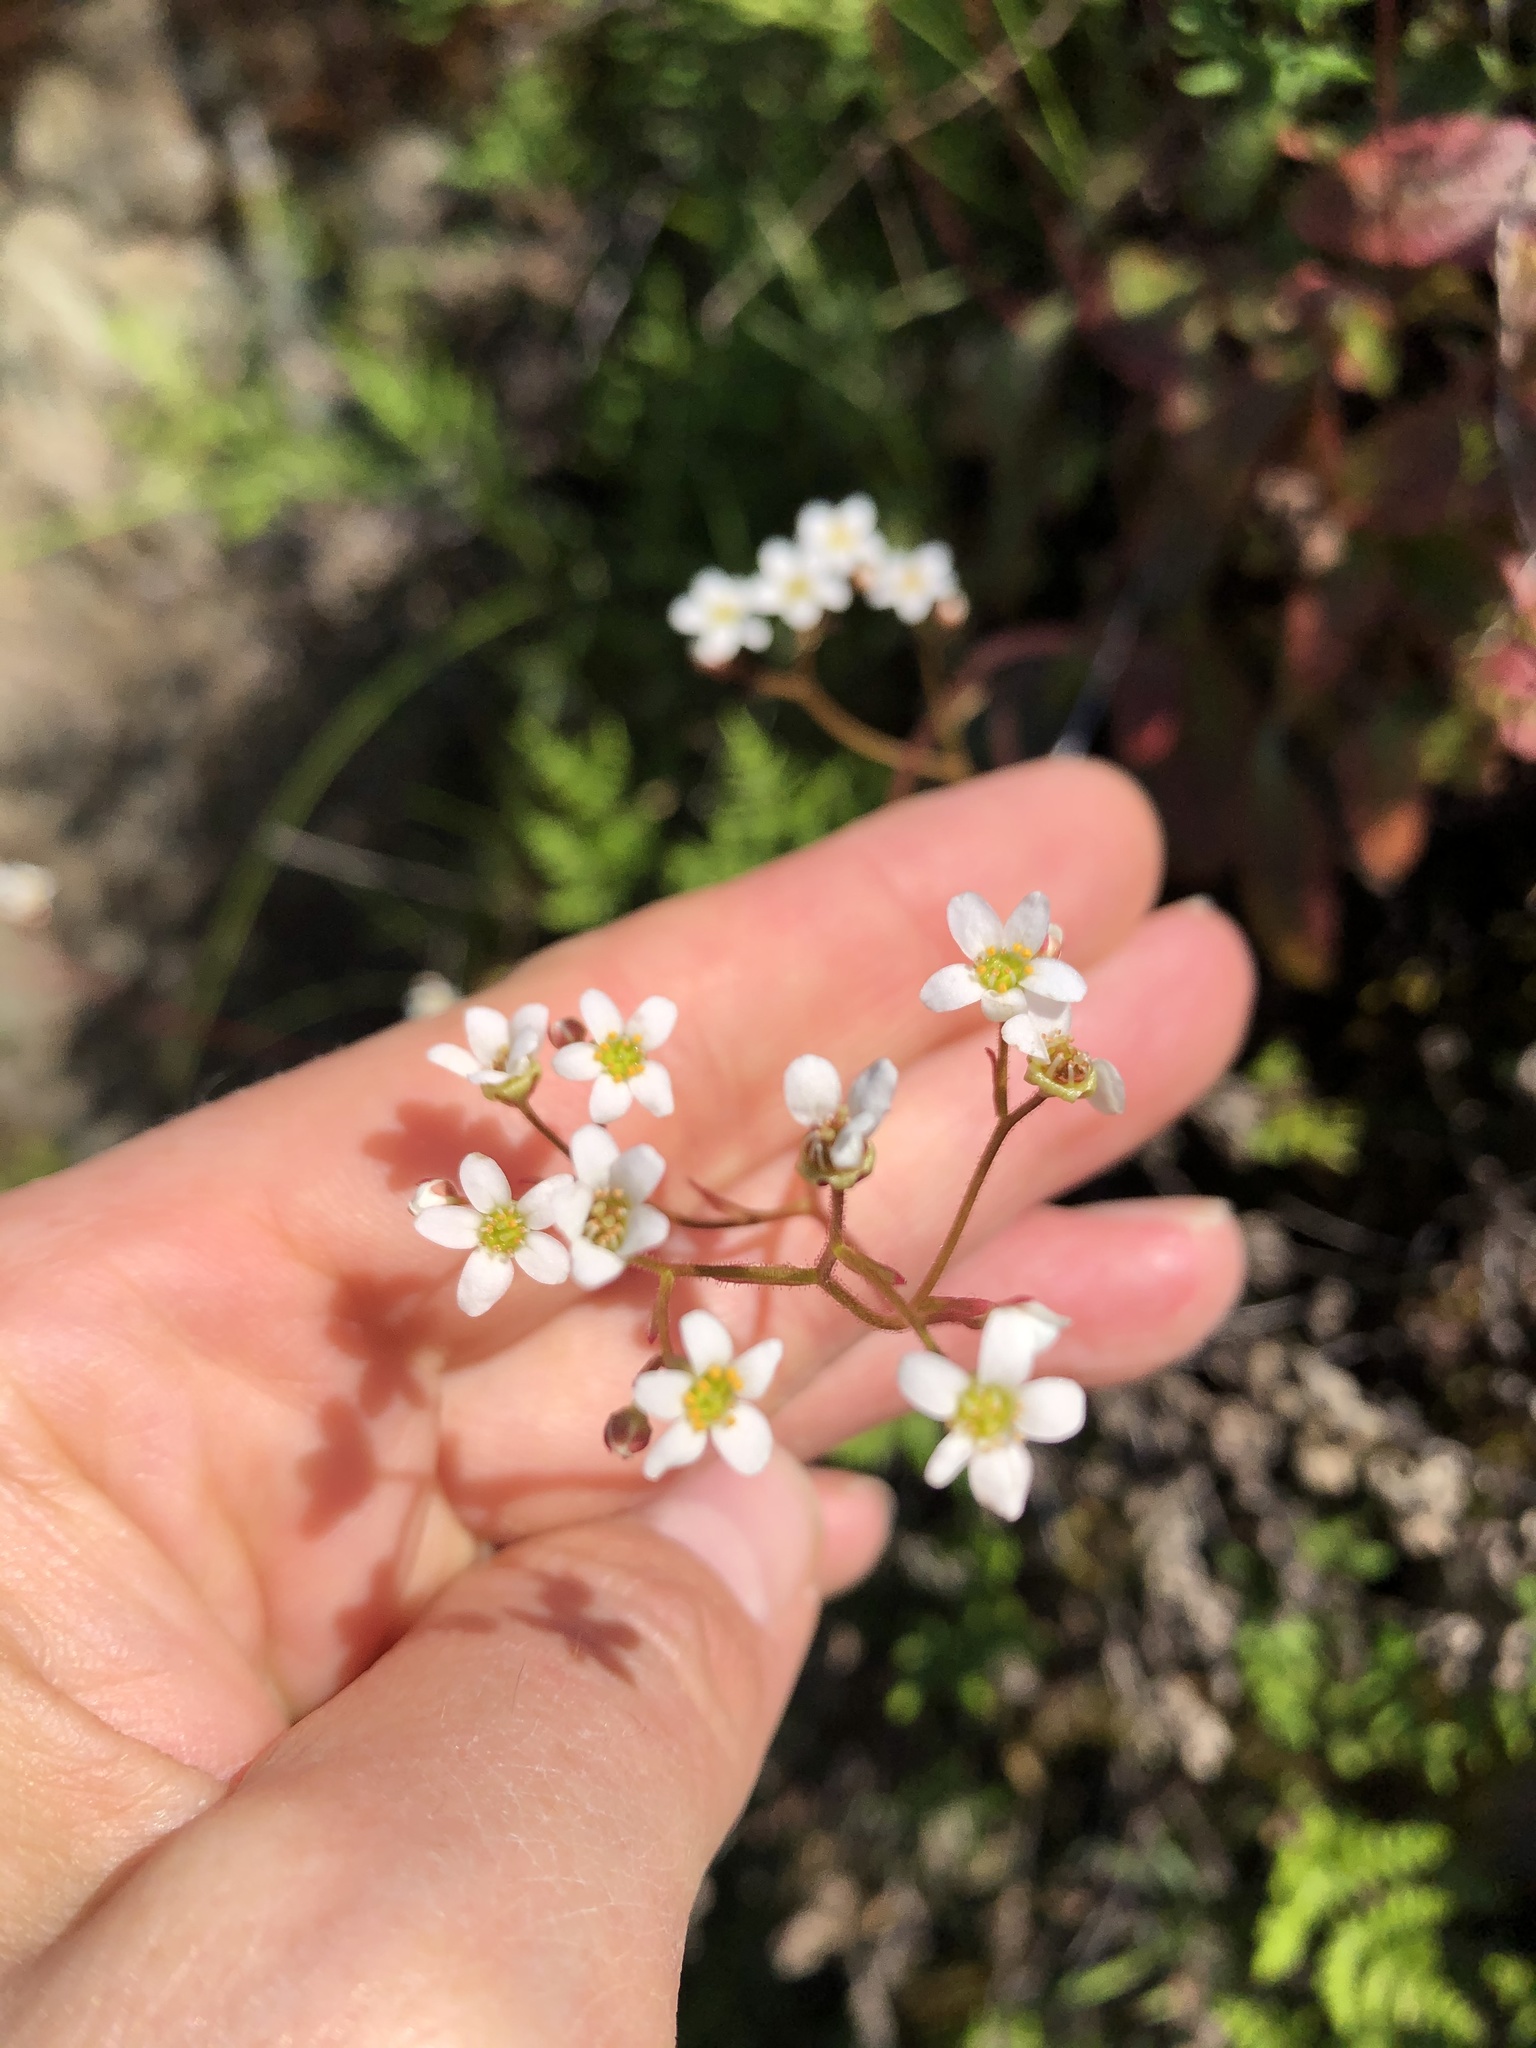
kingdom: Plantae
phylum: Tracheophyta
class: Magnoliopsida
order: Saxifragales
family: Saxifragaceae
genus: Micranthes
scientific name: Micranthes californica
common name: California saxifrage
